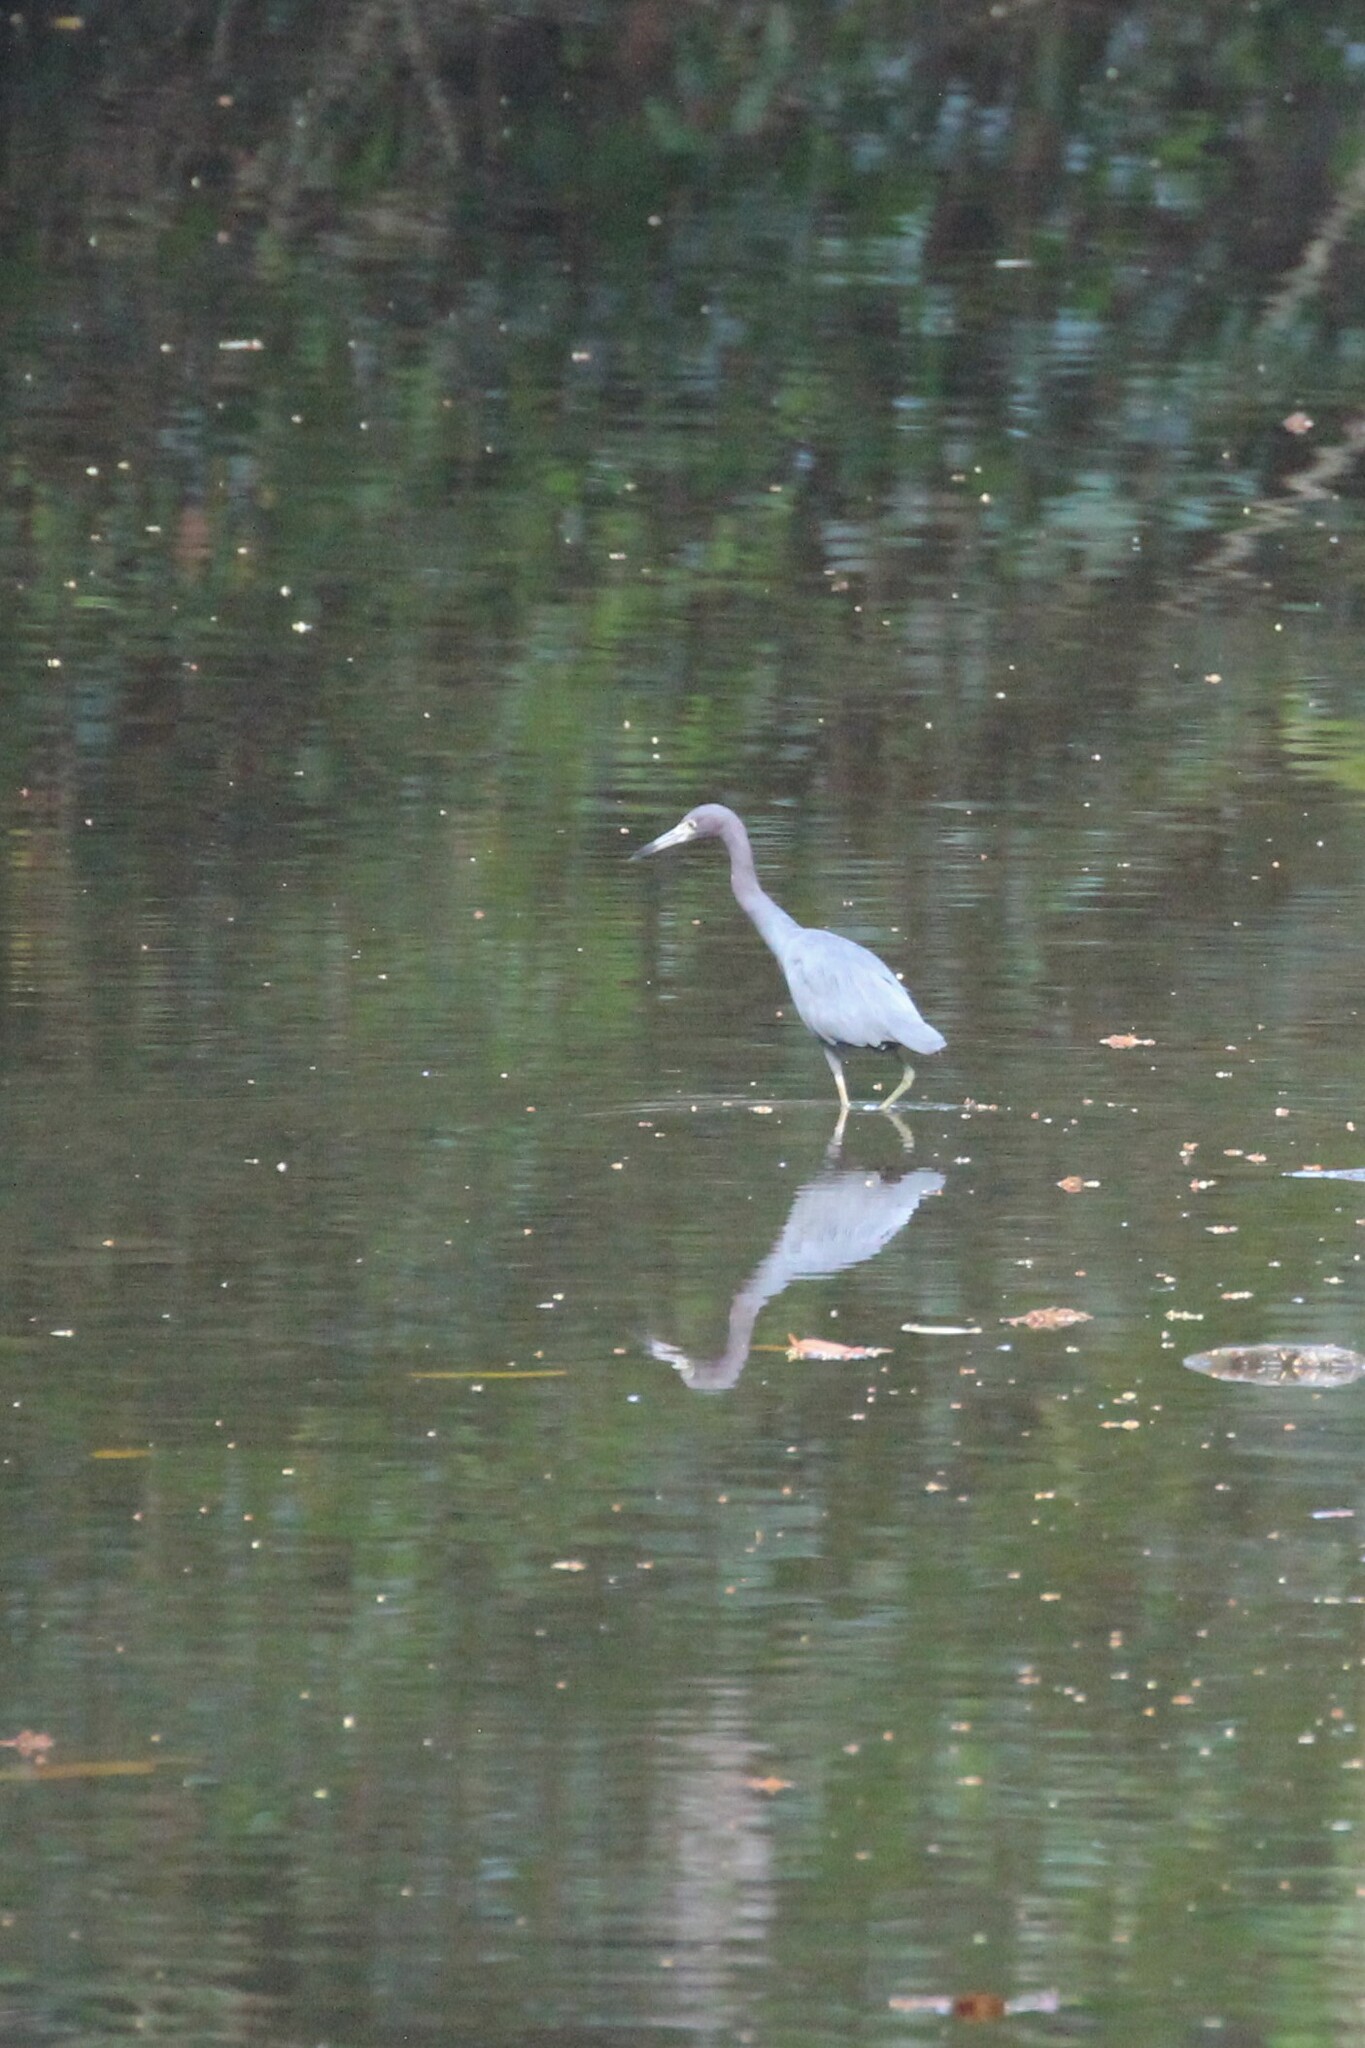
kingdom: Animalia
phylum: Chordata
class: Aves
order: Pelecaniformes
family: Ardeidae
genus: Egretta
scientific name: Egretta caerulea
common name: Little blue heron
